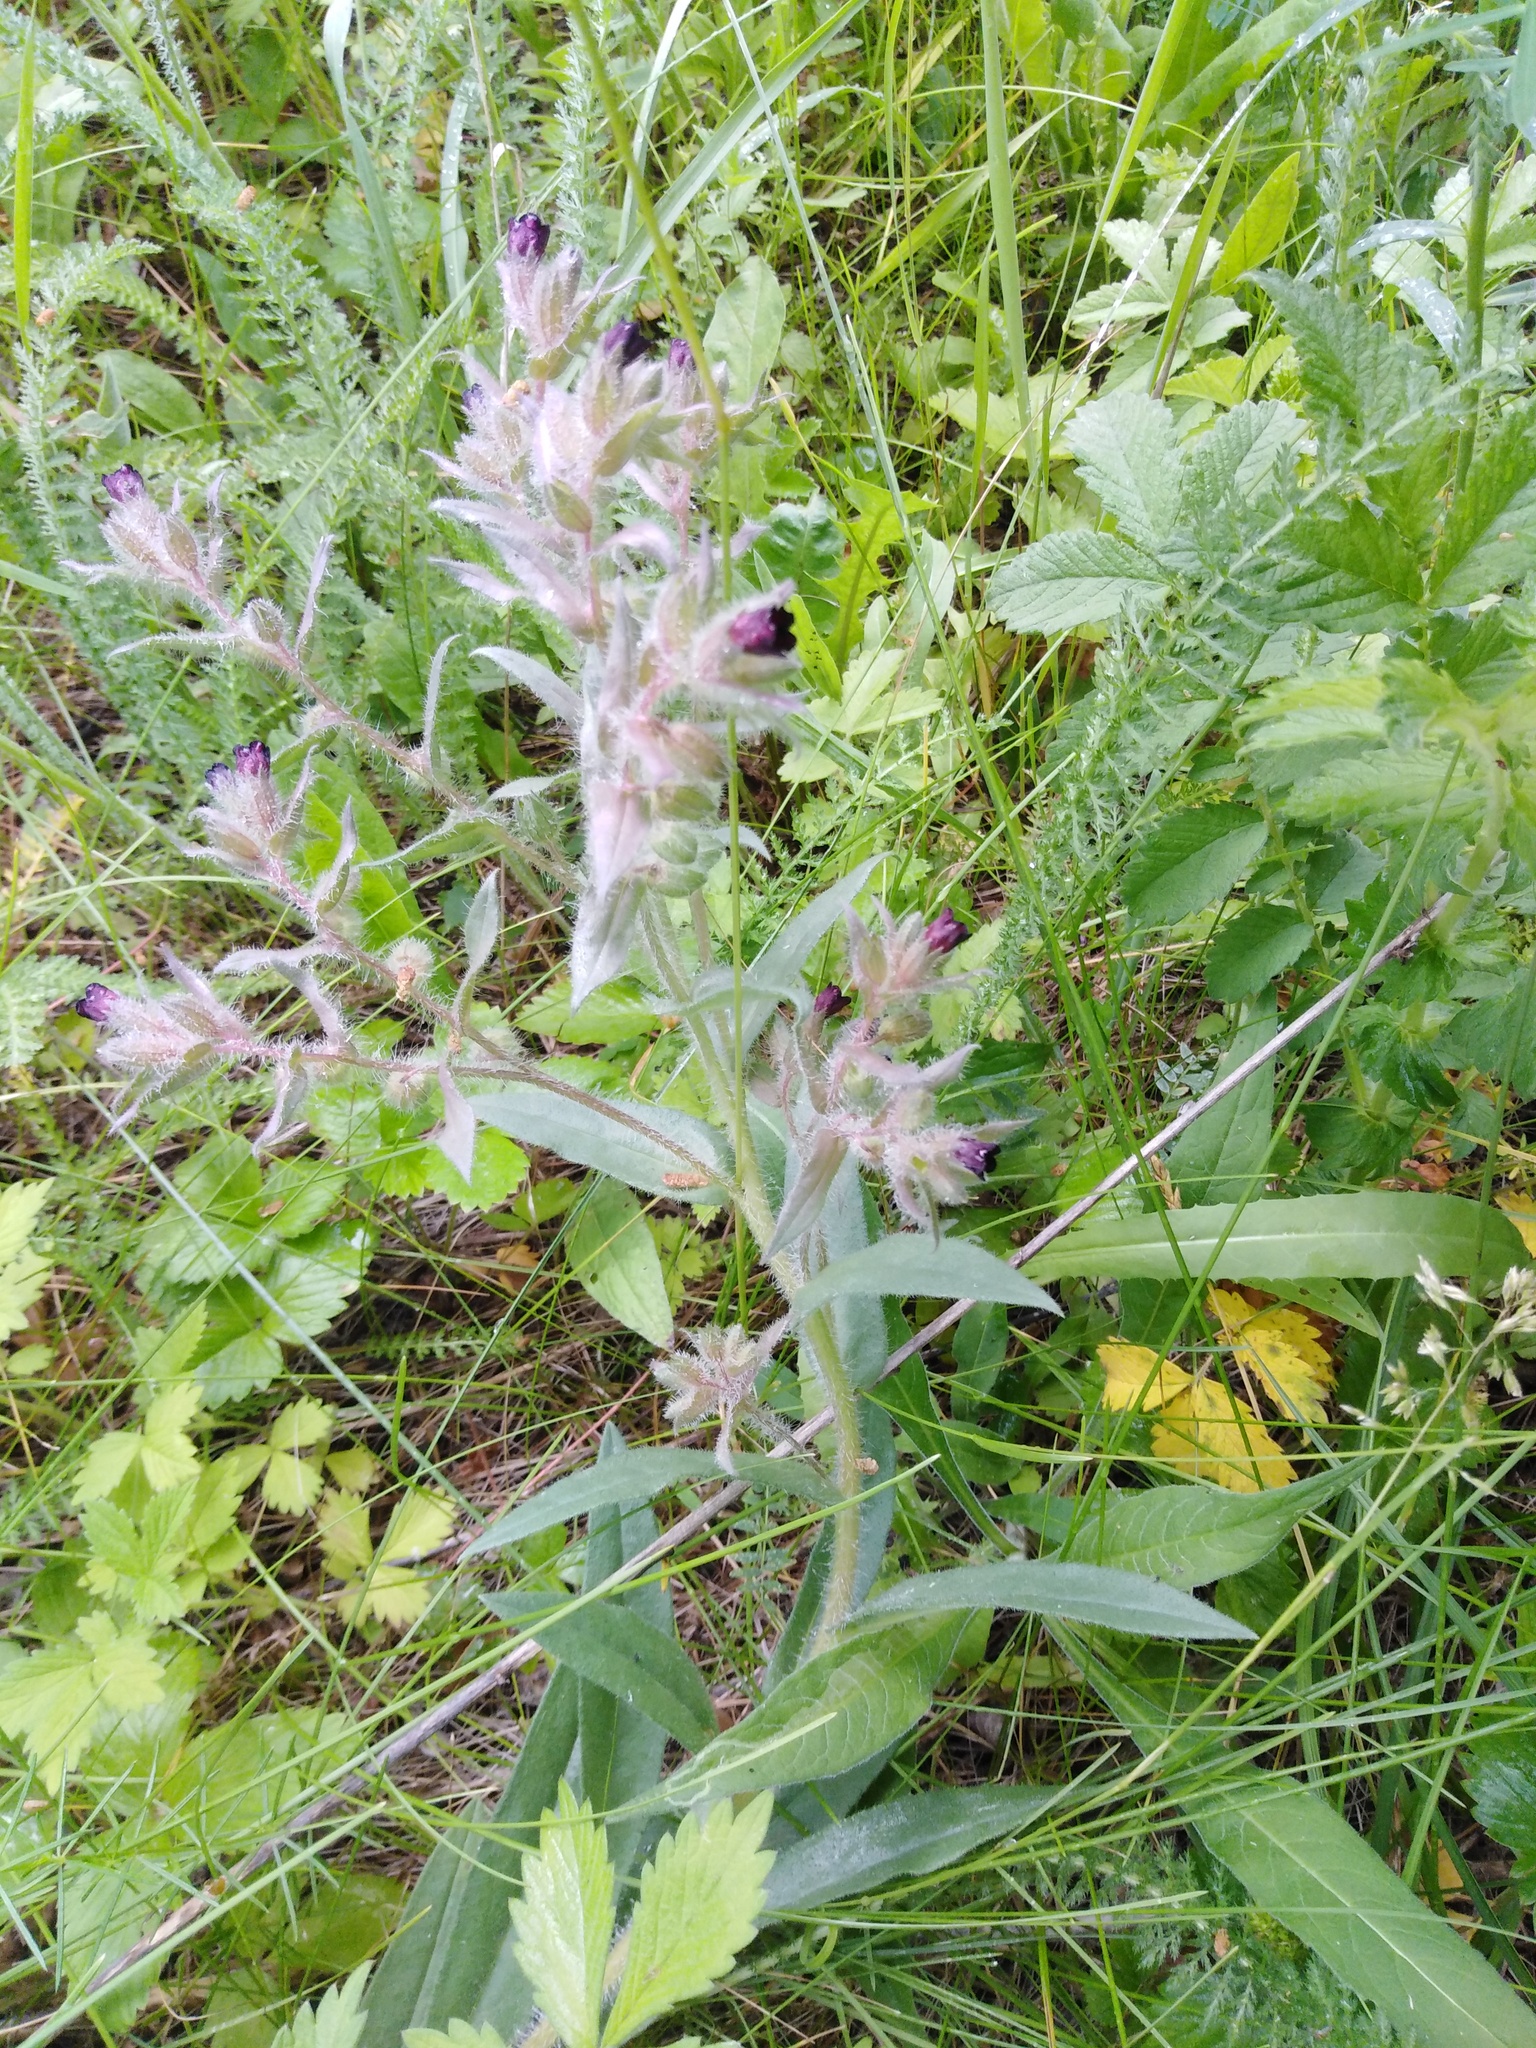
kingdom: Plantae
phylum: Tracheophyta
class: Magnoliopsida
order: Boraginales
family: Boraginaceae
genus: Nonea
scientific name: Nonea pulla
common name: Brown nonea
